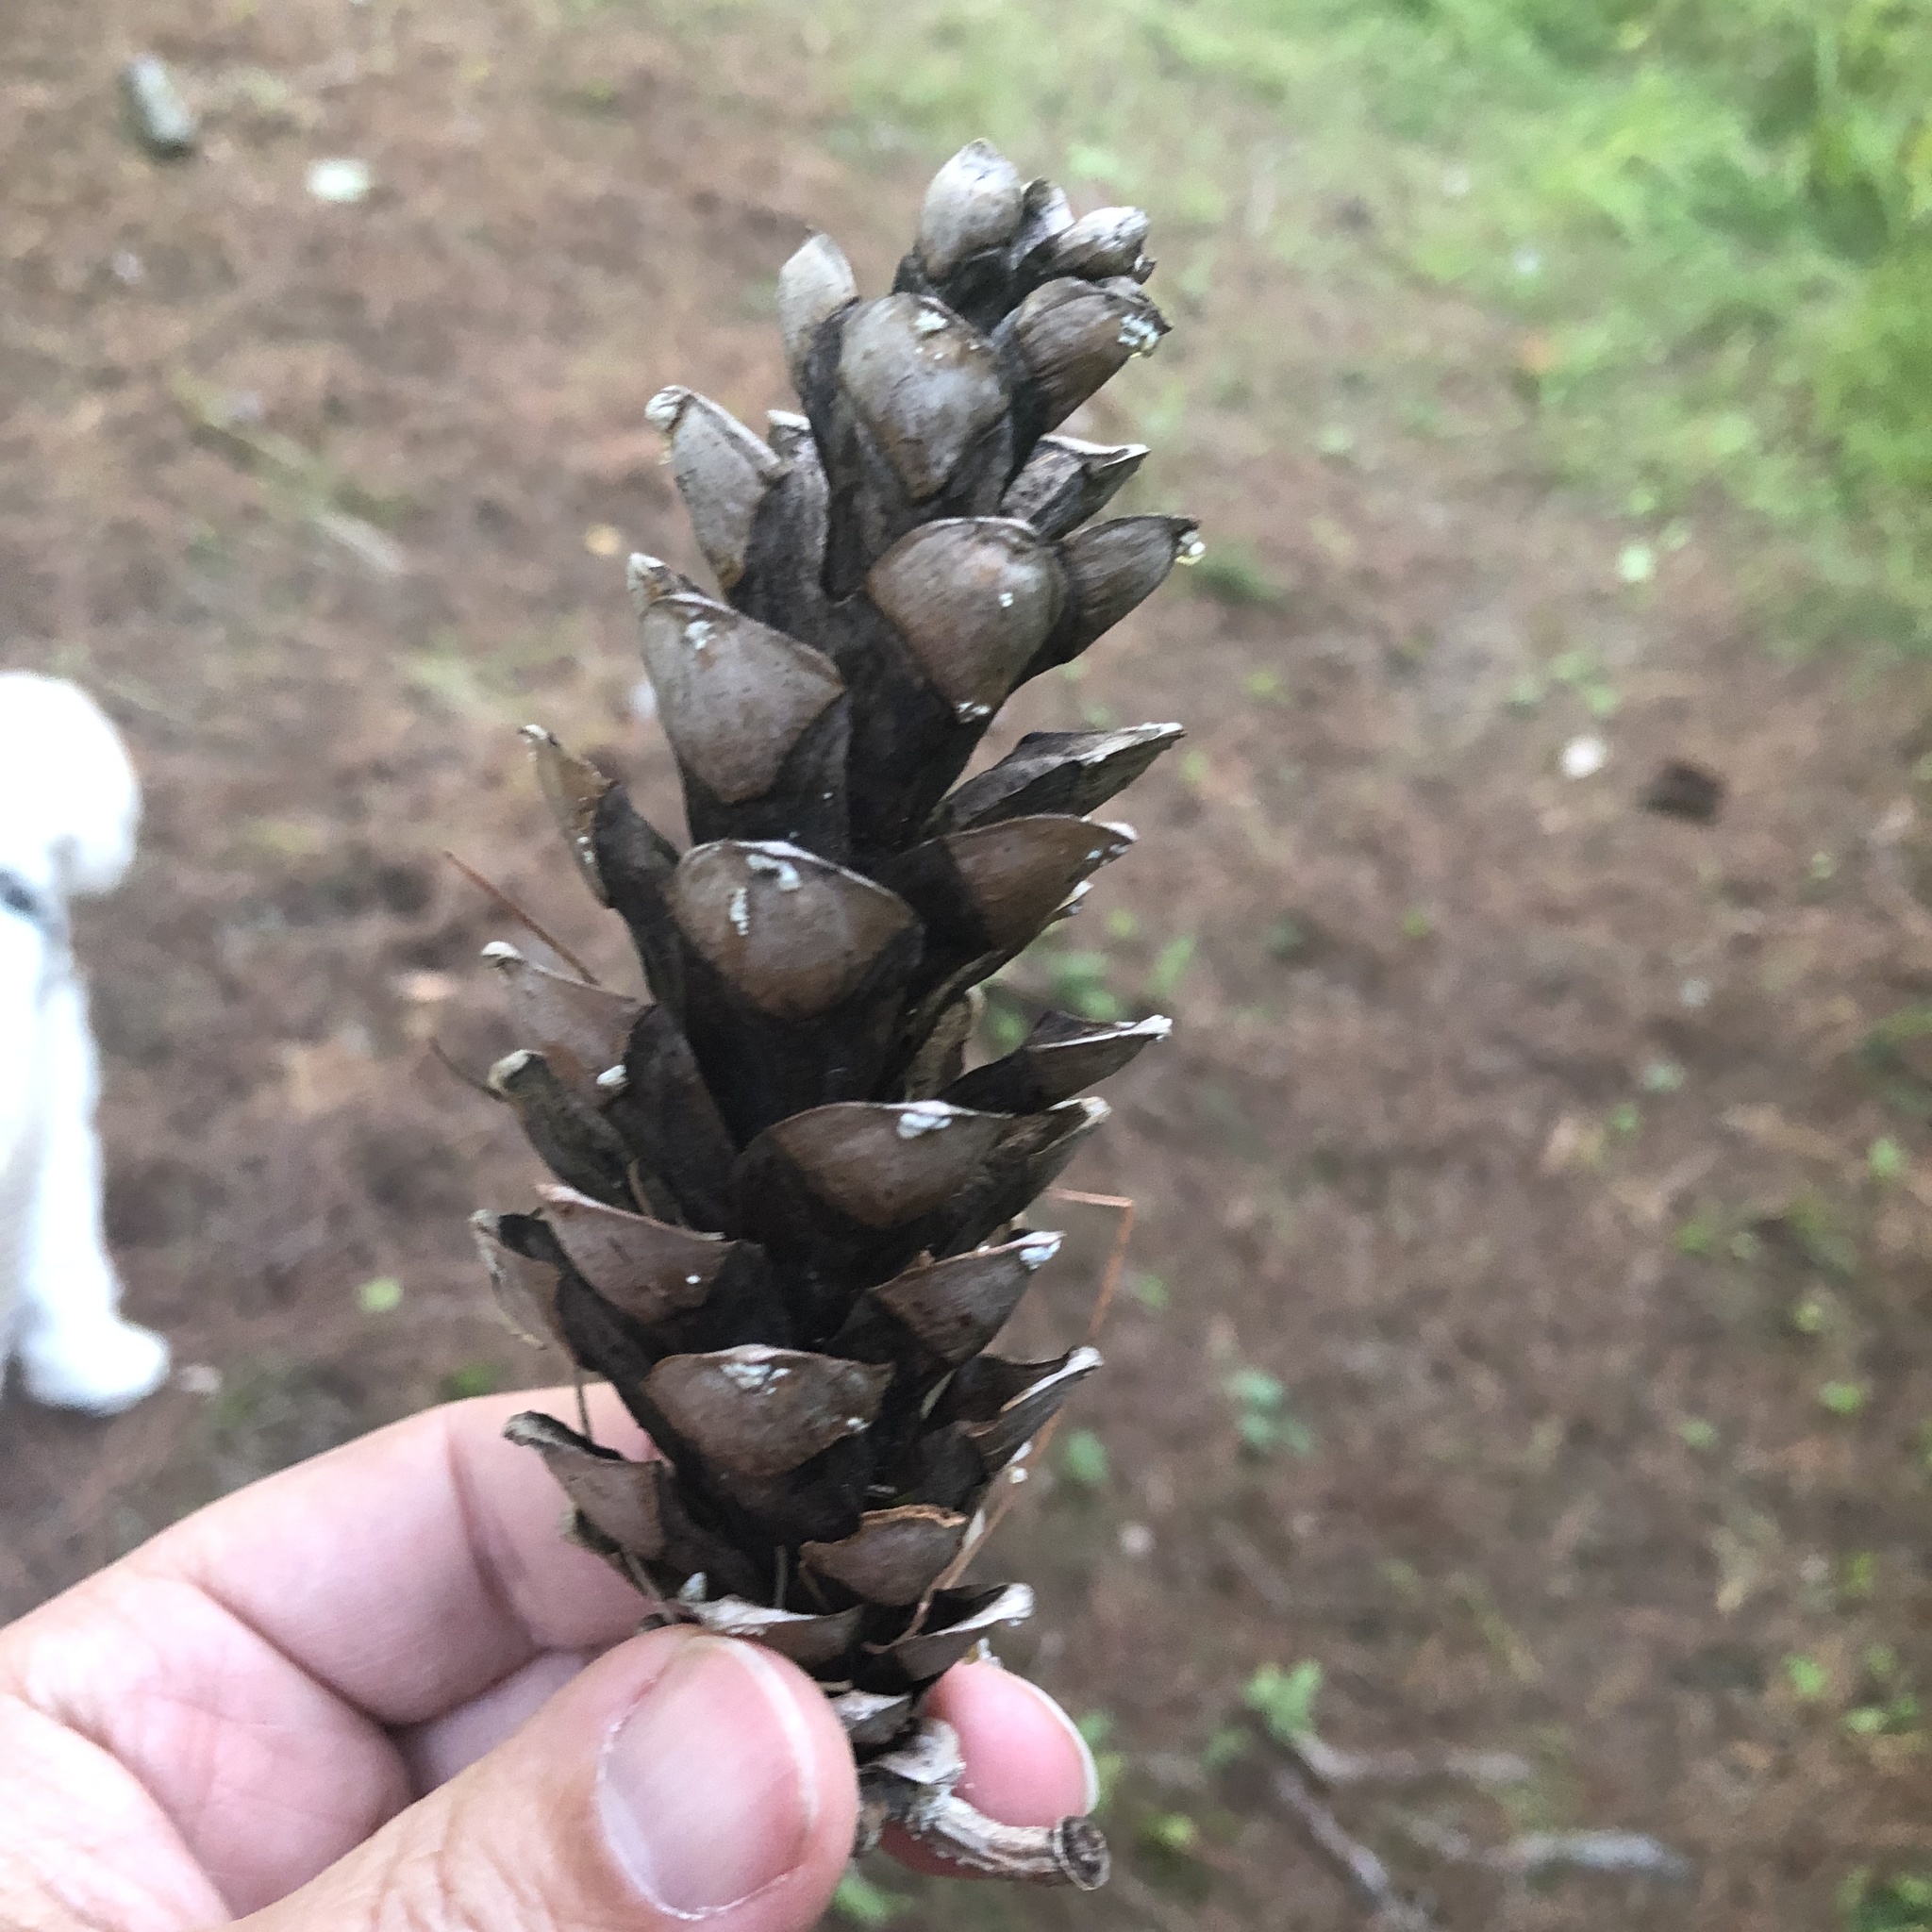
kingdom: Plantae
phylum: Tracheophyta
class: Pinopsida
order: Pinales
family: Pinaceae
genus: Pinus
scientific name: Pinus strobus
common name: Weymouth pine
